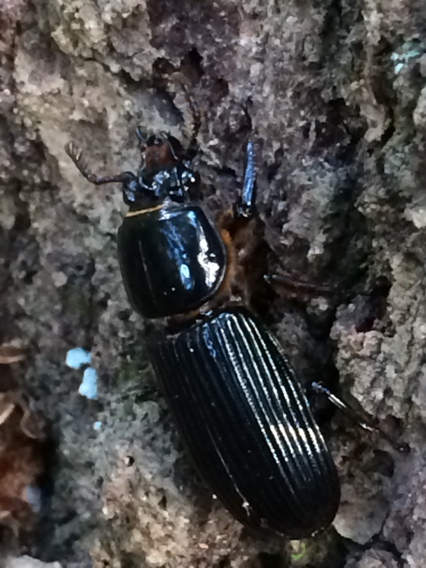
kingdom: Animalia
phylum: Arthropoda
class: Insecta
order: Coleoptera
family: Passalidae
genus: Odontotaenius
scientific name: Odontotaenius disjunctus
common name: Patent leather beetle
